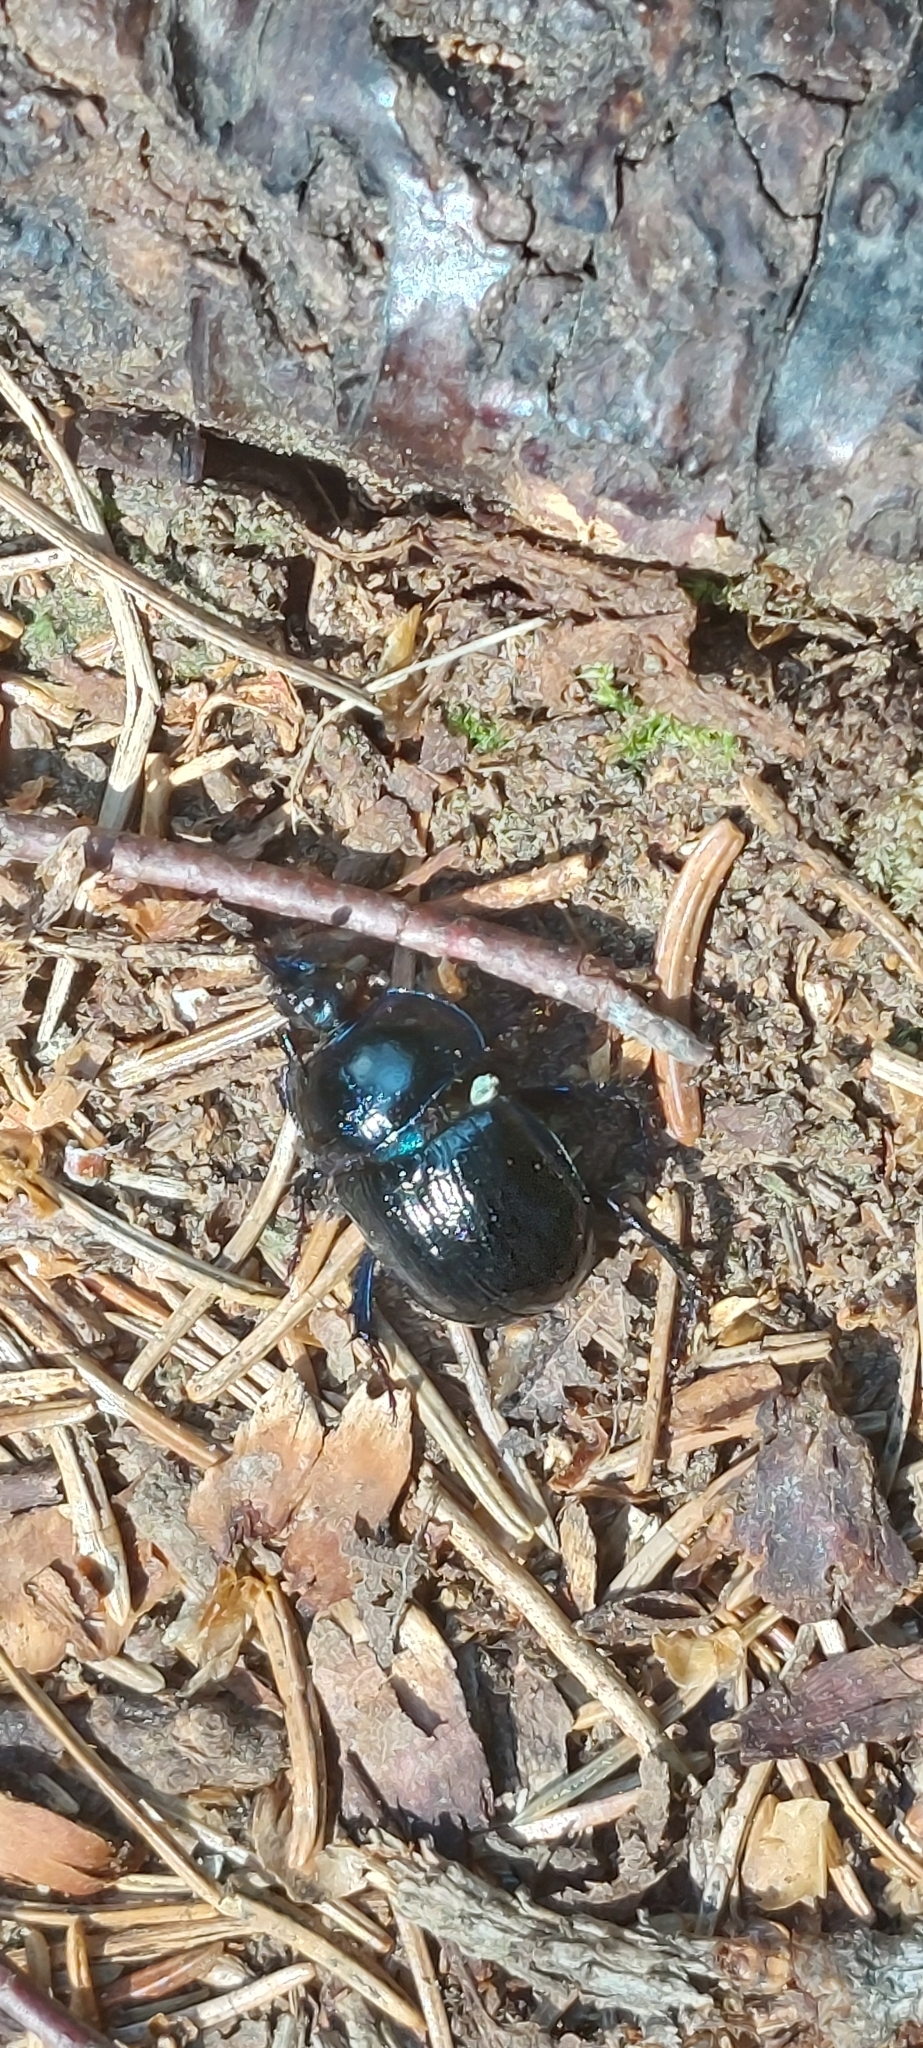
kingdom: Animalia
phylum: Arthropoda
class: Insecta
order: Coleoptera
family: Geotrupidae
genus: Anoplotrupes
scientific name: Anoplotrupes stercorosus
